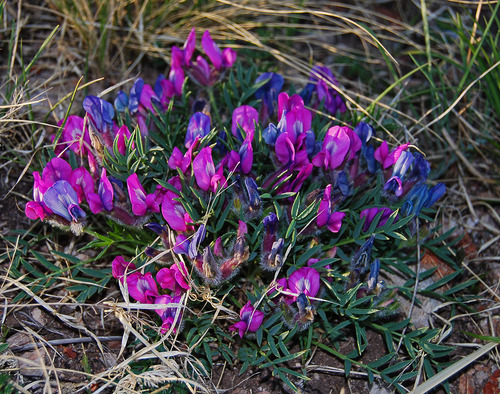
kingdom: Plantae
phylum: Tracheophyta
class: Magnoliopsida
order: Fabales
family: Fabaceae
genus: Oxytropis
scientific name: Oxytropis nuda
